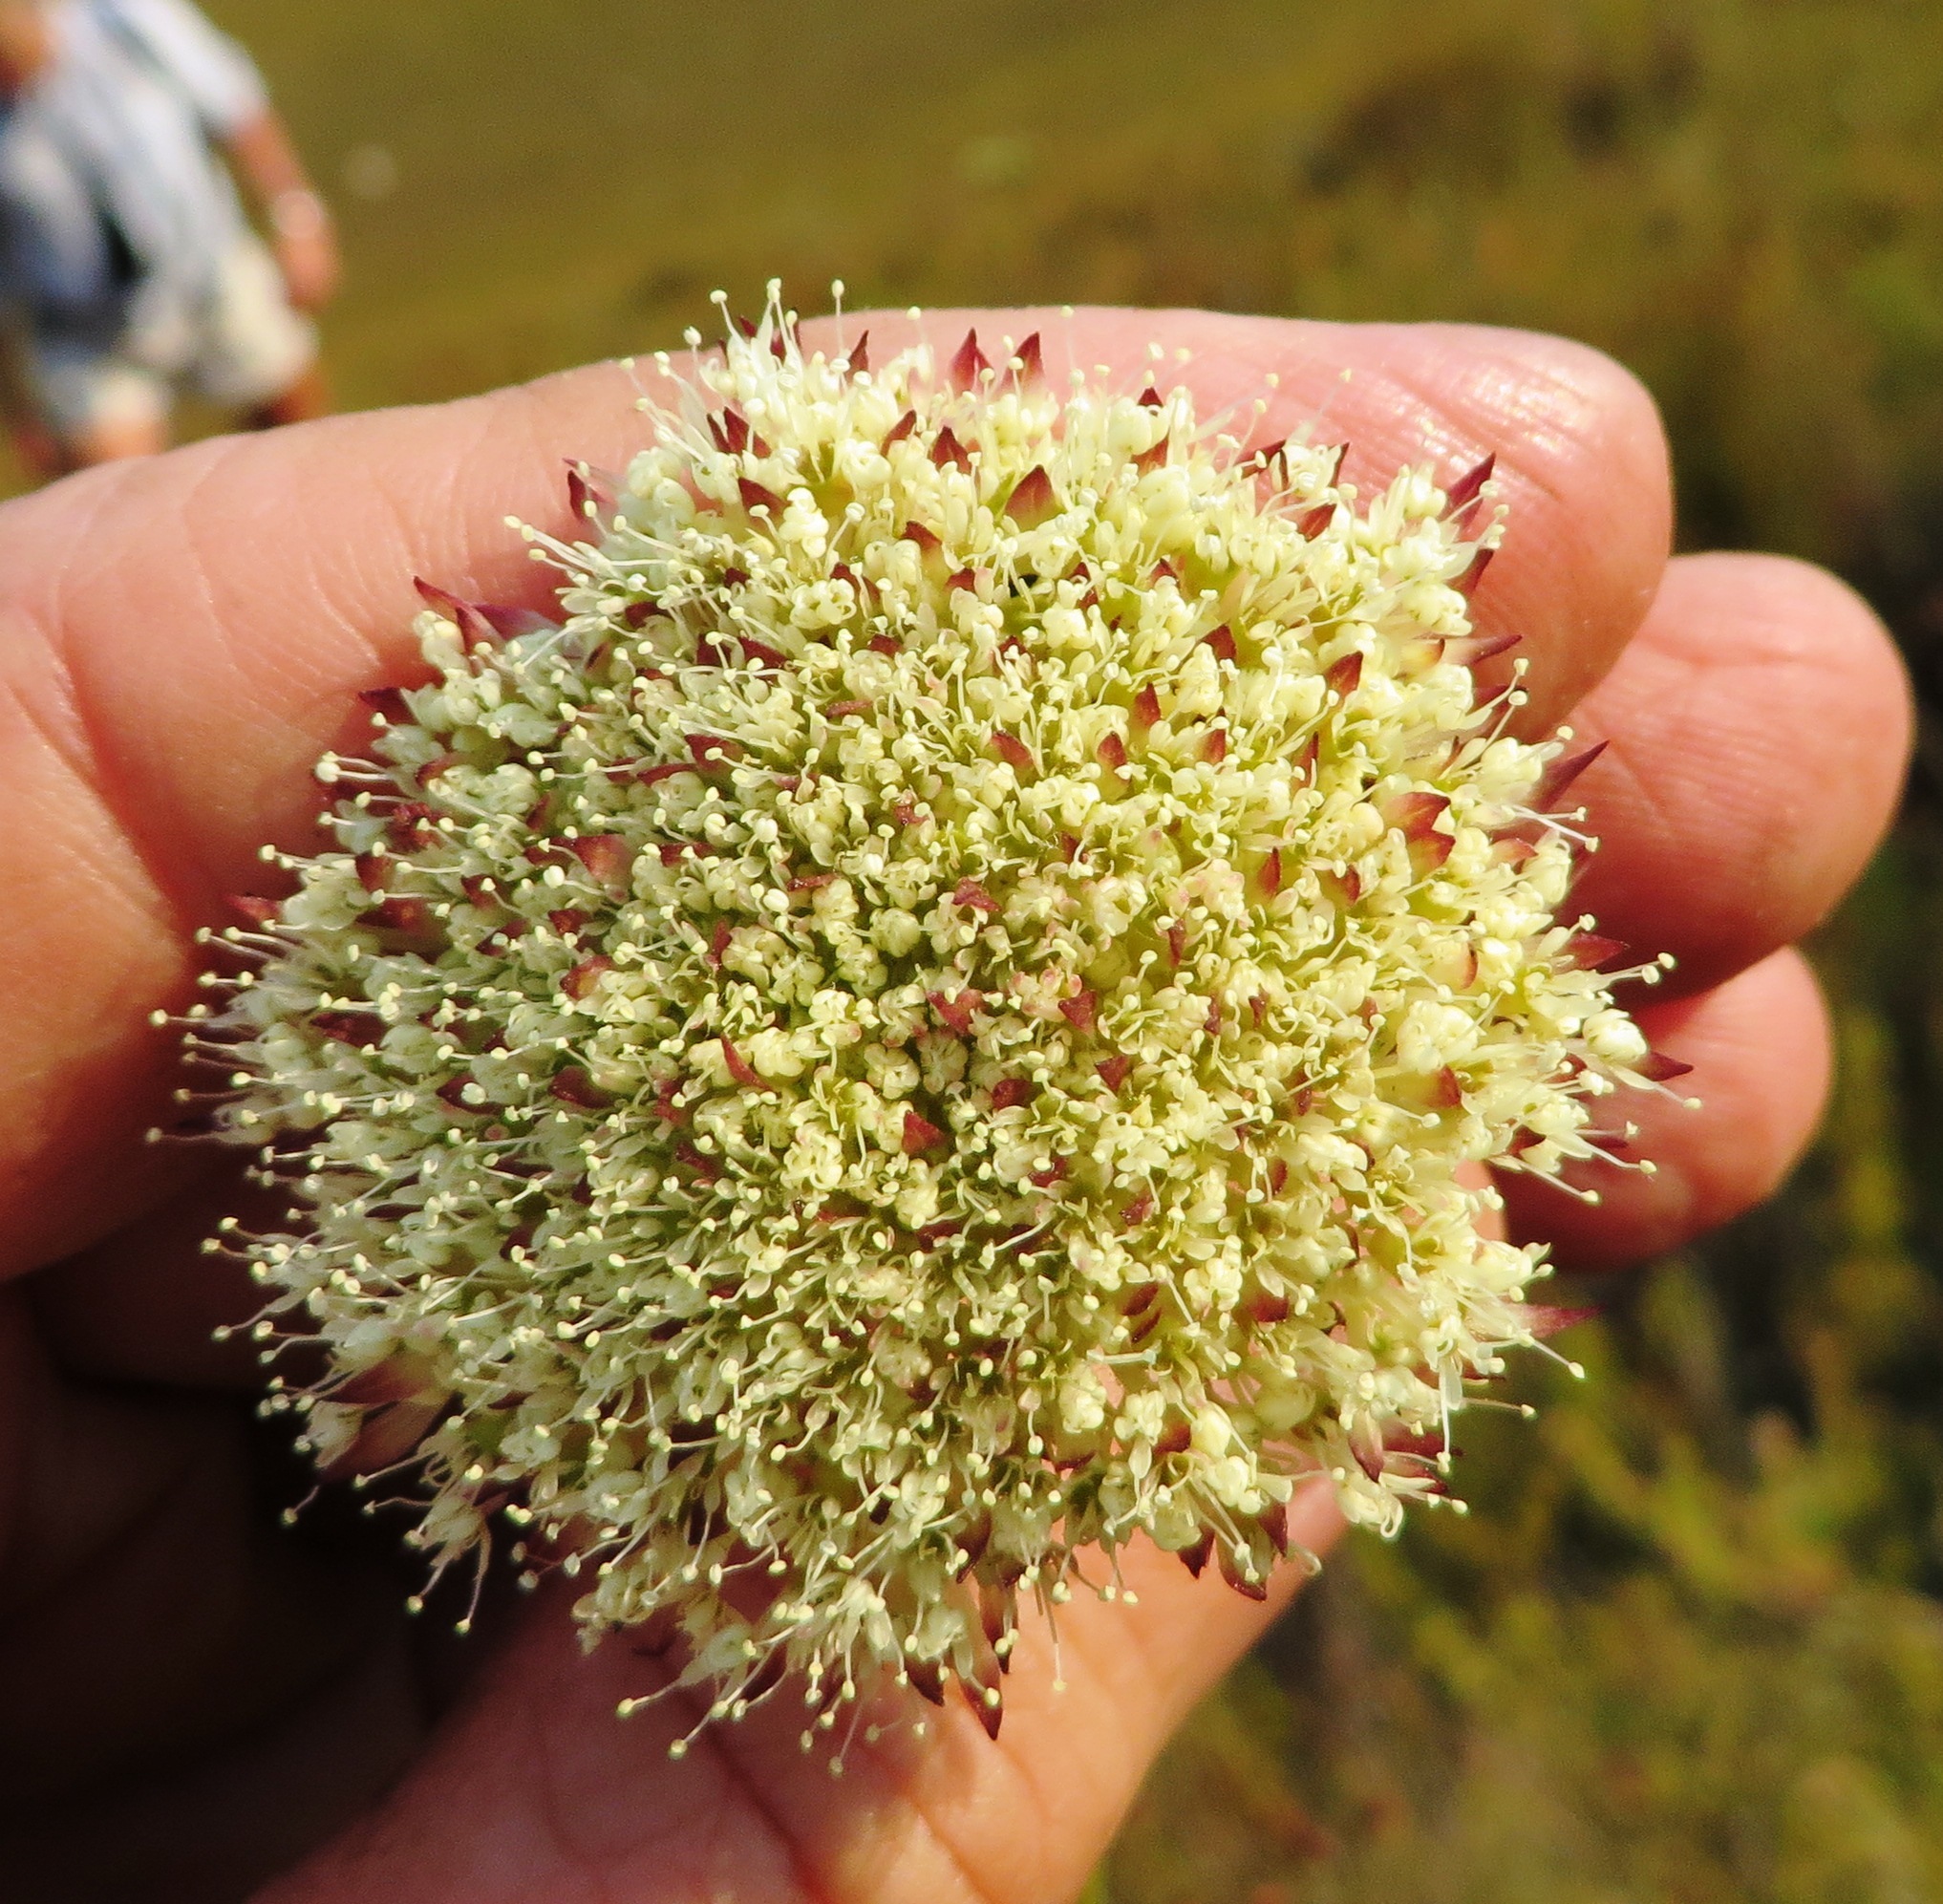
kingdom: Plantae
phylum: Tracheophyta
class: Magnoliopsida
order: Apiales
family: Apiaceae
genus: Hermas
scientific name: Hermas ciliata
